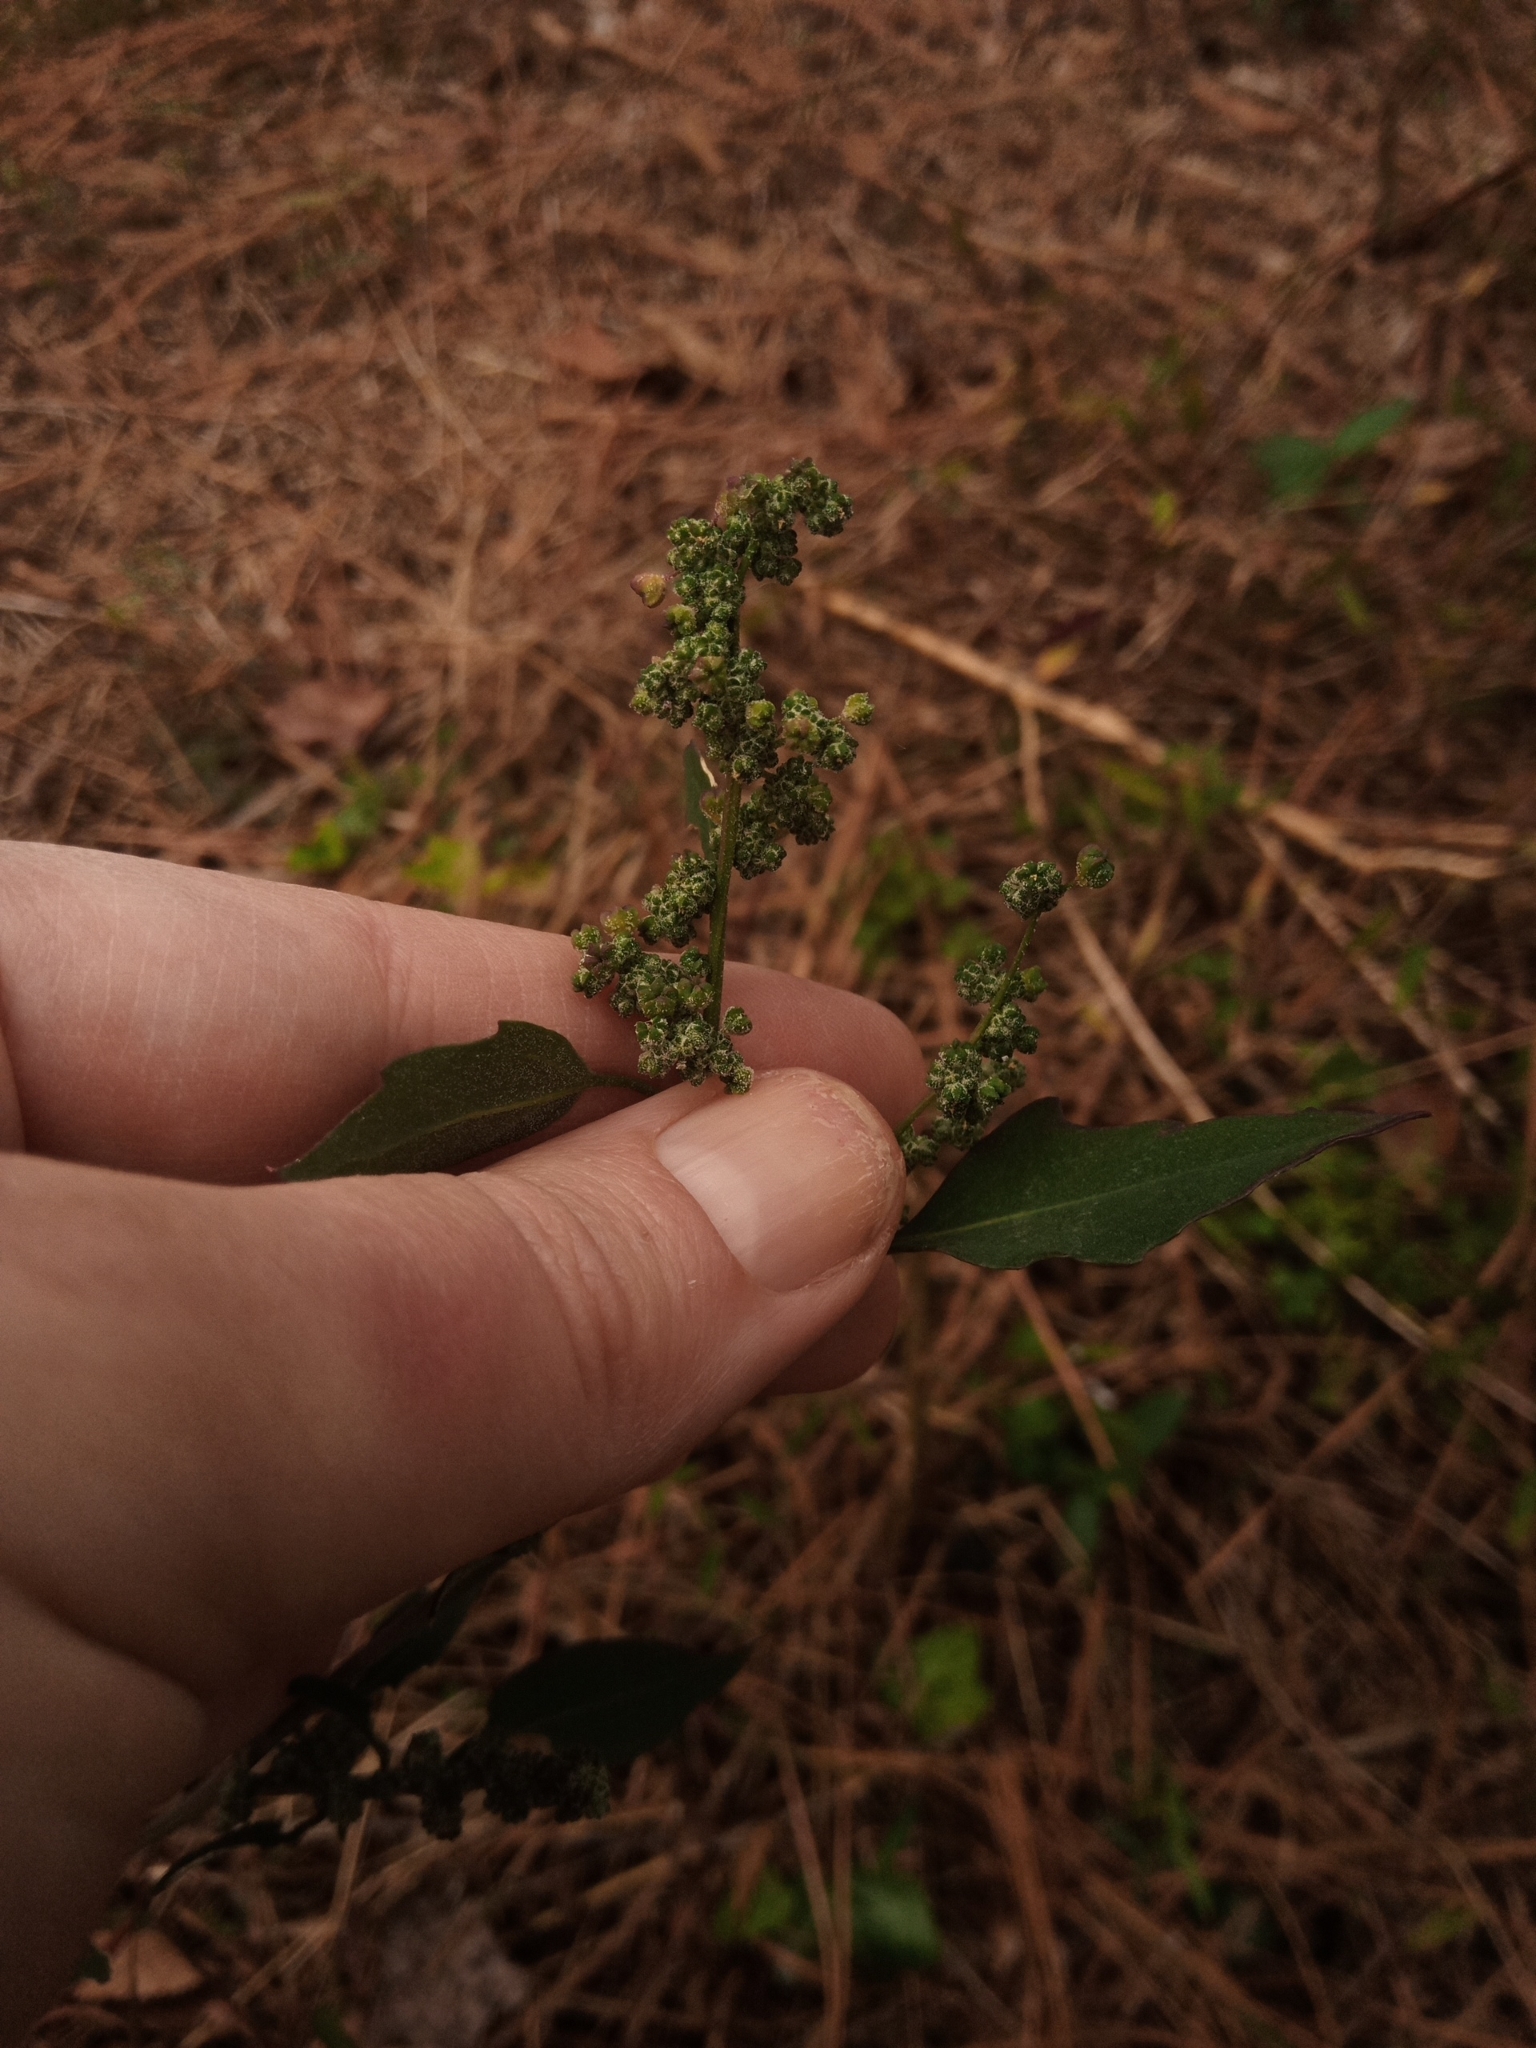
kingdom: Plantae
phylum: Tracheophyta
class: Magnoliopsida
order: Caryophyllales
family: Amaranthaceae
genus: Chenopodium
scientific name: Chenopodium album
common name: Fat-hen
